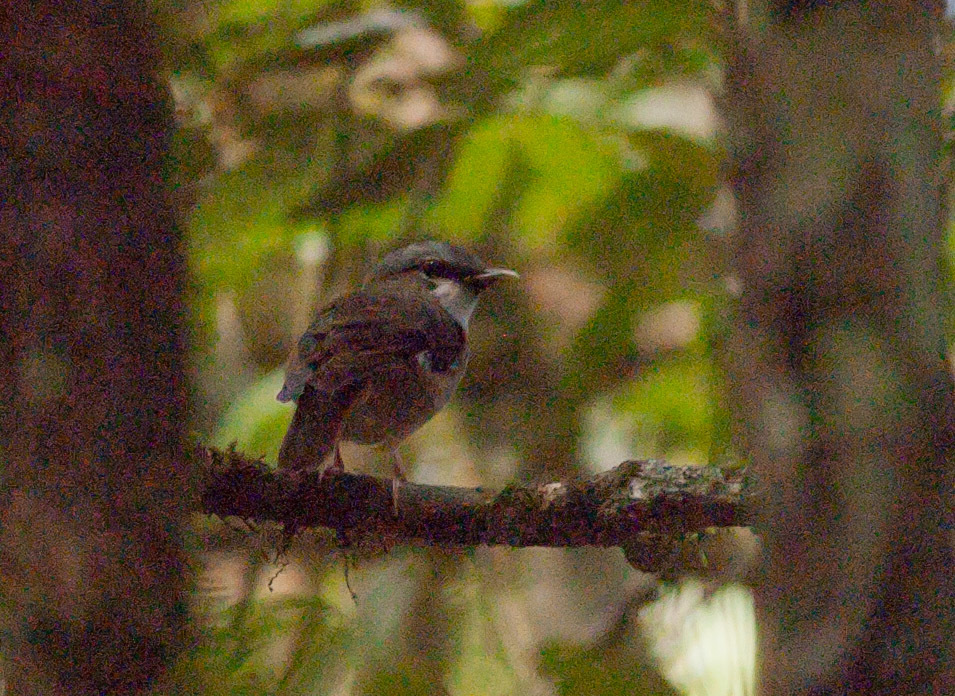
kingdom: Animalia
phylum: Chordata
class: Aves
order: Passeriformes
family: Petroicidae
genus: Heteromyias
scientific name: Heteromyias cinereifrons
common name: Grey-headed robin
